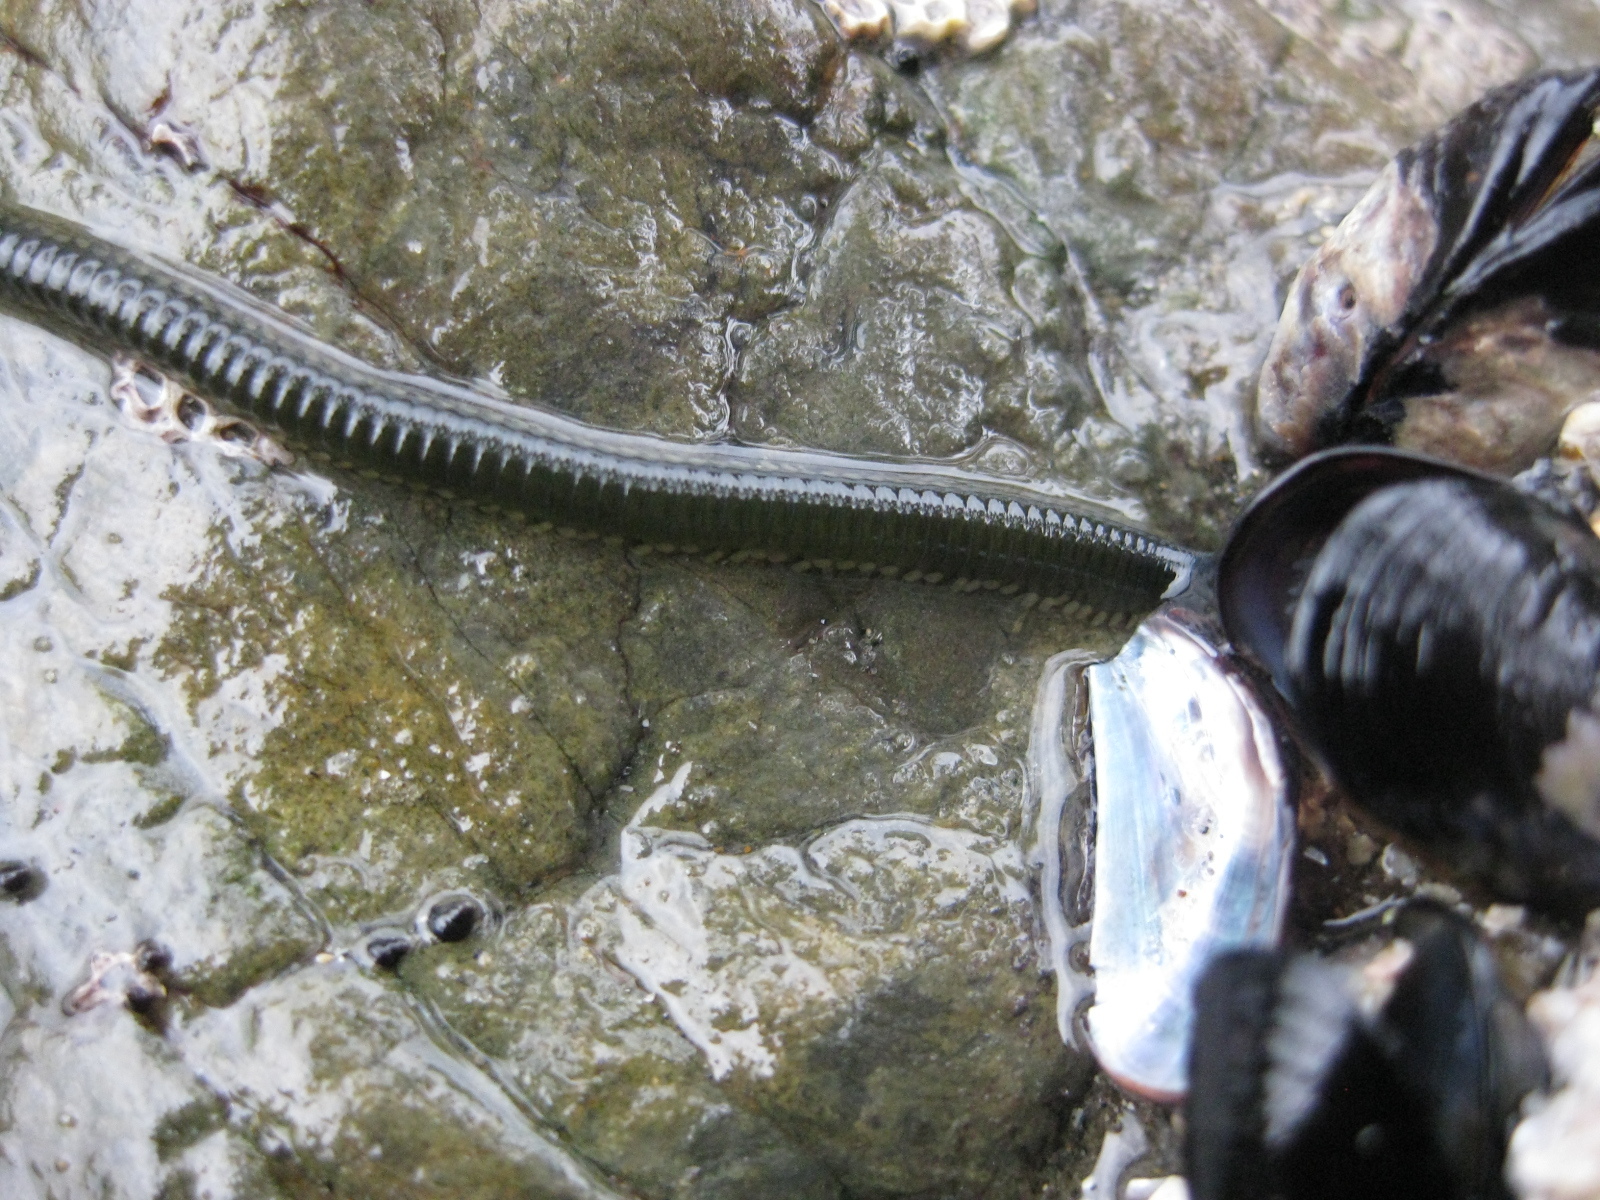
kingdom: Animalia
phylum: Annelida
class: Polychaeta
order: Phyllodocida
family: Phyllodocidae
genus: Eulalia
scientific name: Eulalia microphylla
